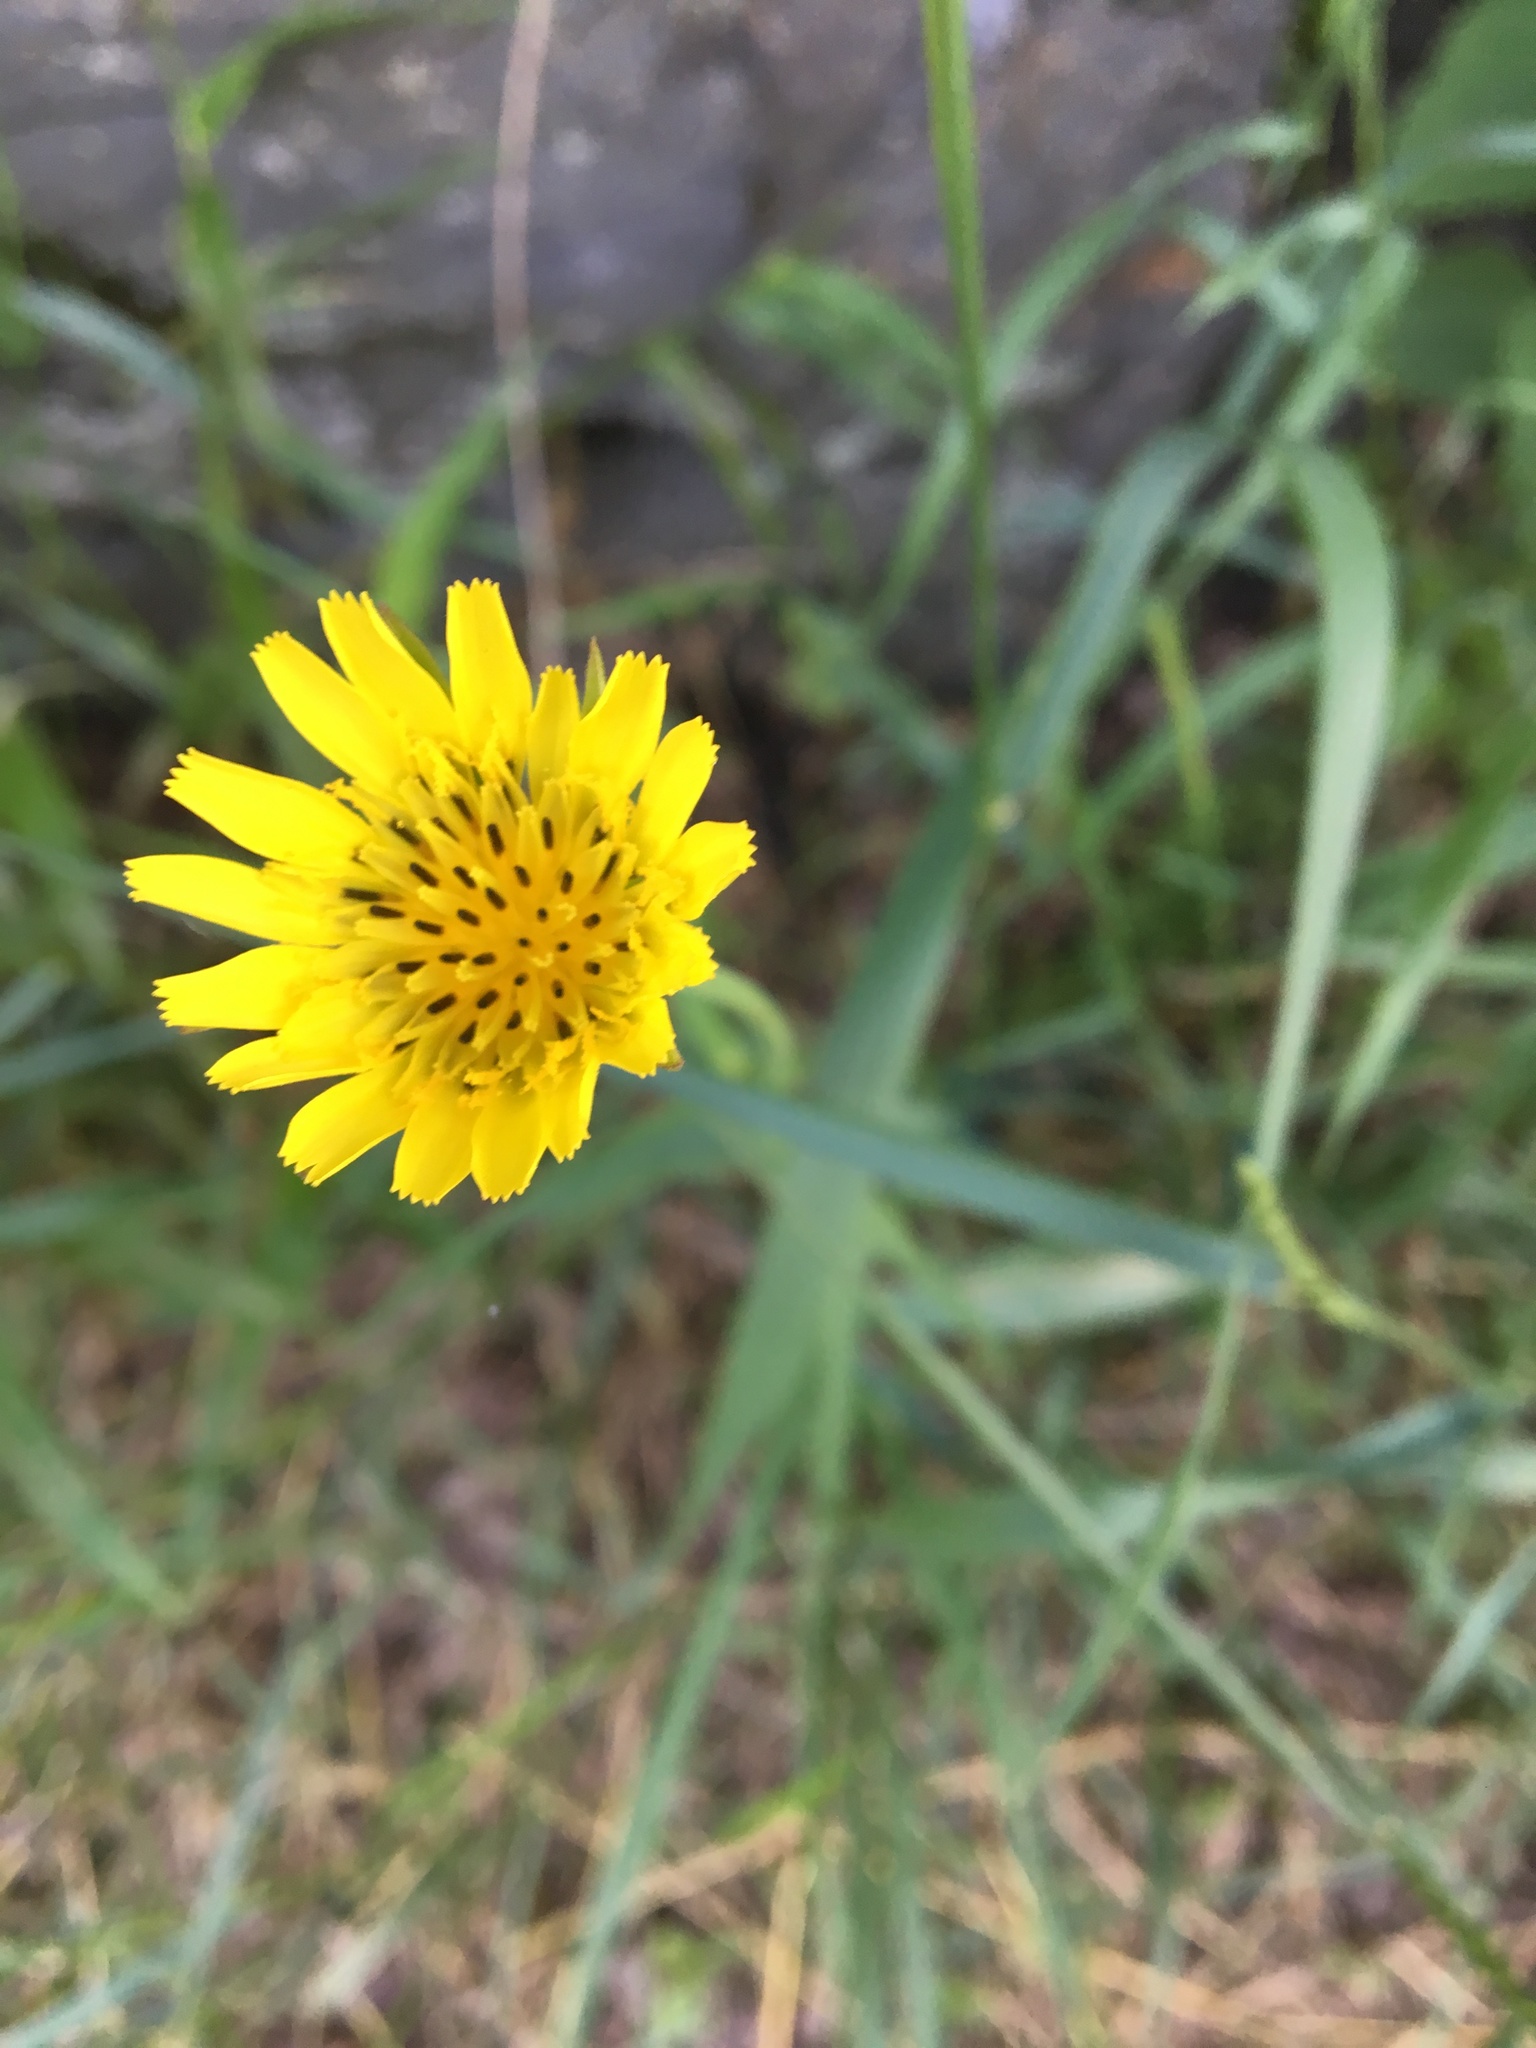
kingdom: Plantae
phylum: Tracheophyta
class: Magnoliopsida
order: Asterales
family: Asteraceae
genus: Tragopogon
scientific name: Tragopogon pratensis
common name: Goat's-beard
